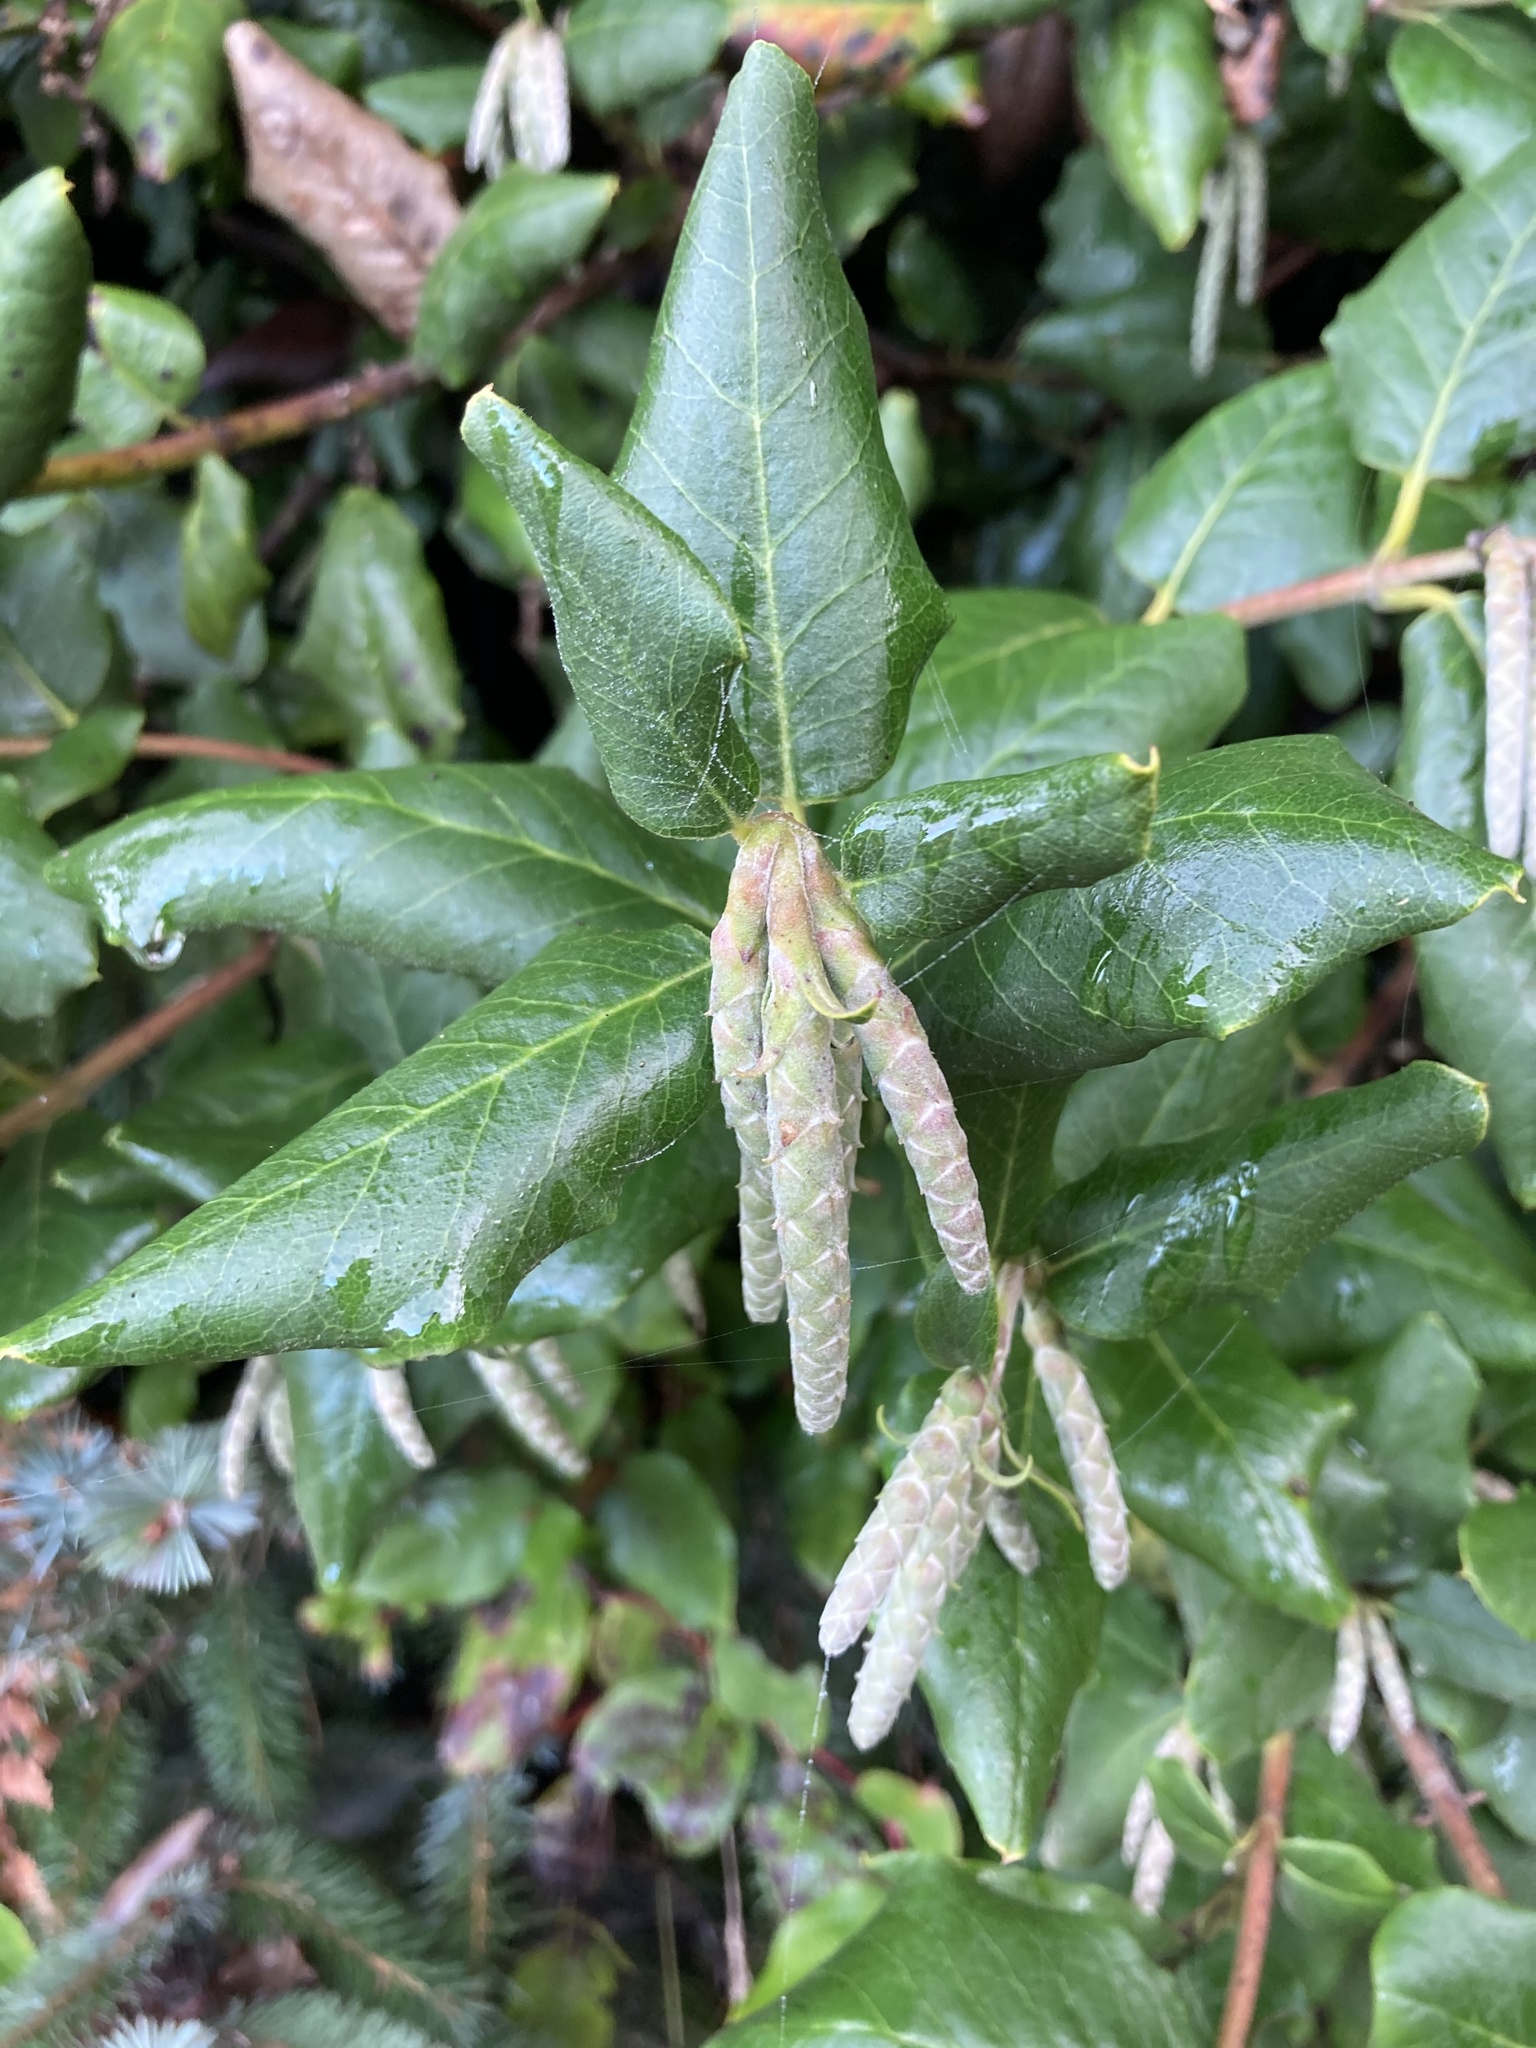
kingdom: Plantae
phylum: Tracheophyta
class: Magnoliopsida
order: Garryales
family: Garryaceae
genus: Garrya
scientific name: Garrya elliptica
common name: Silk-tassel
